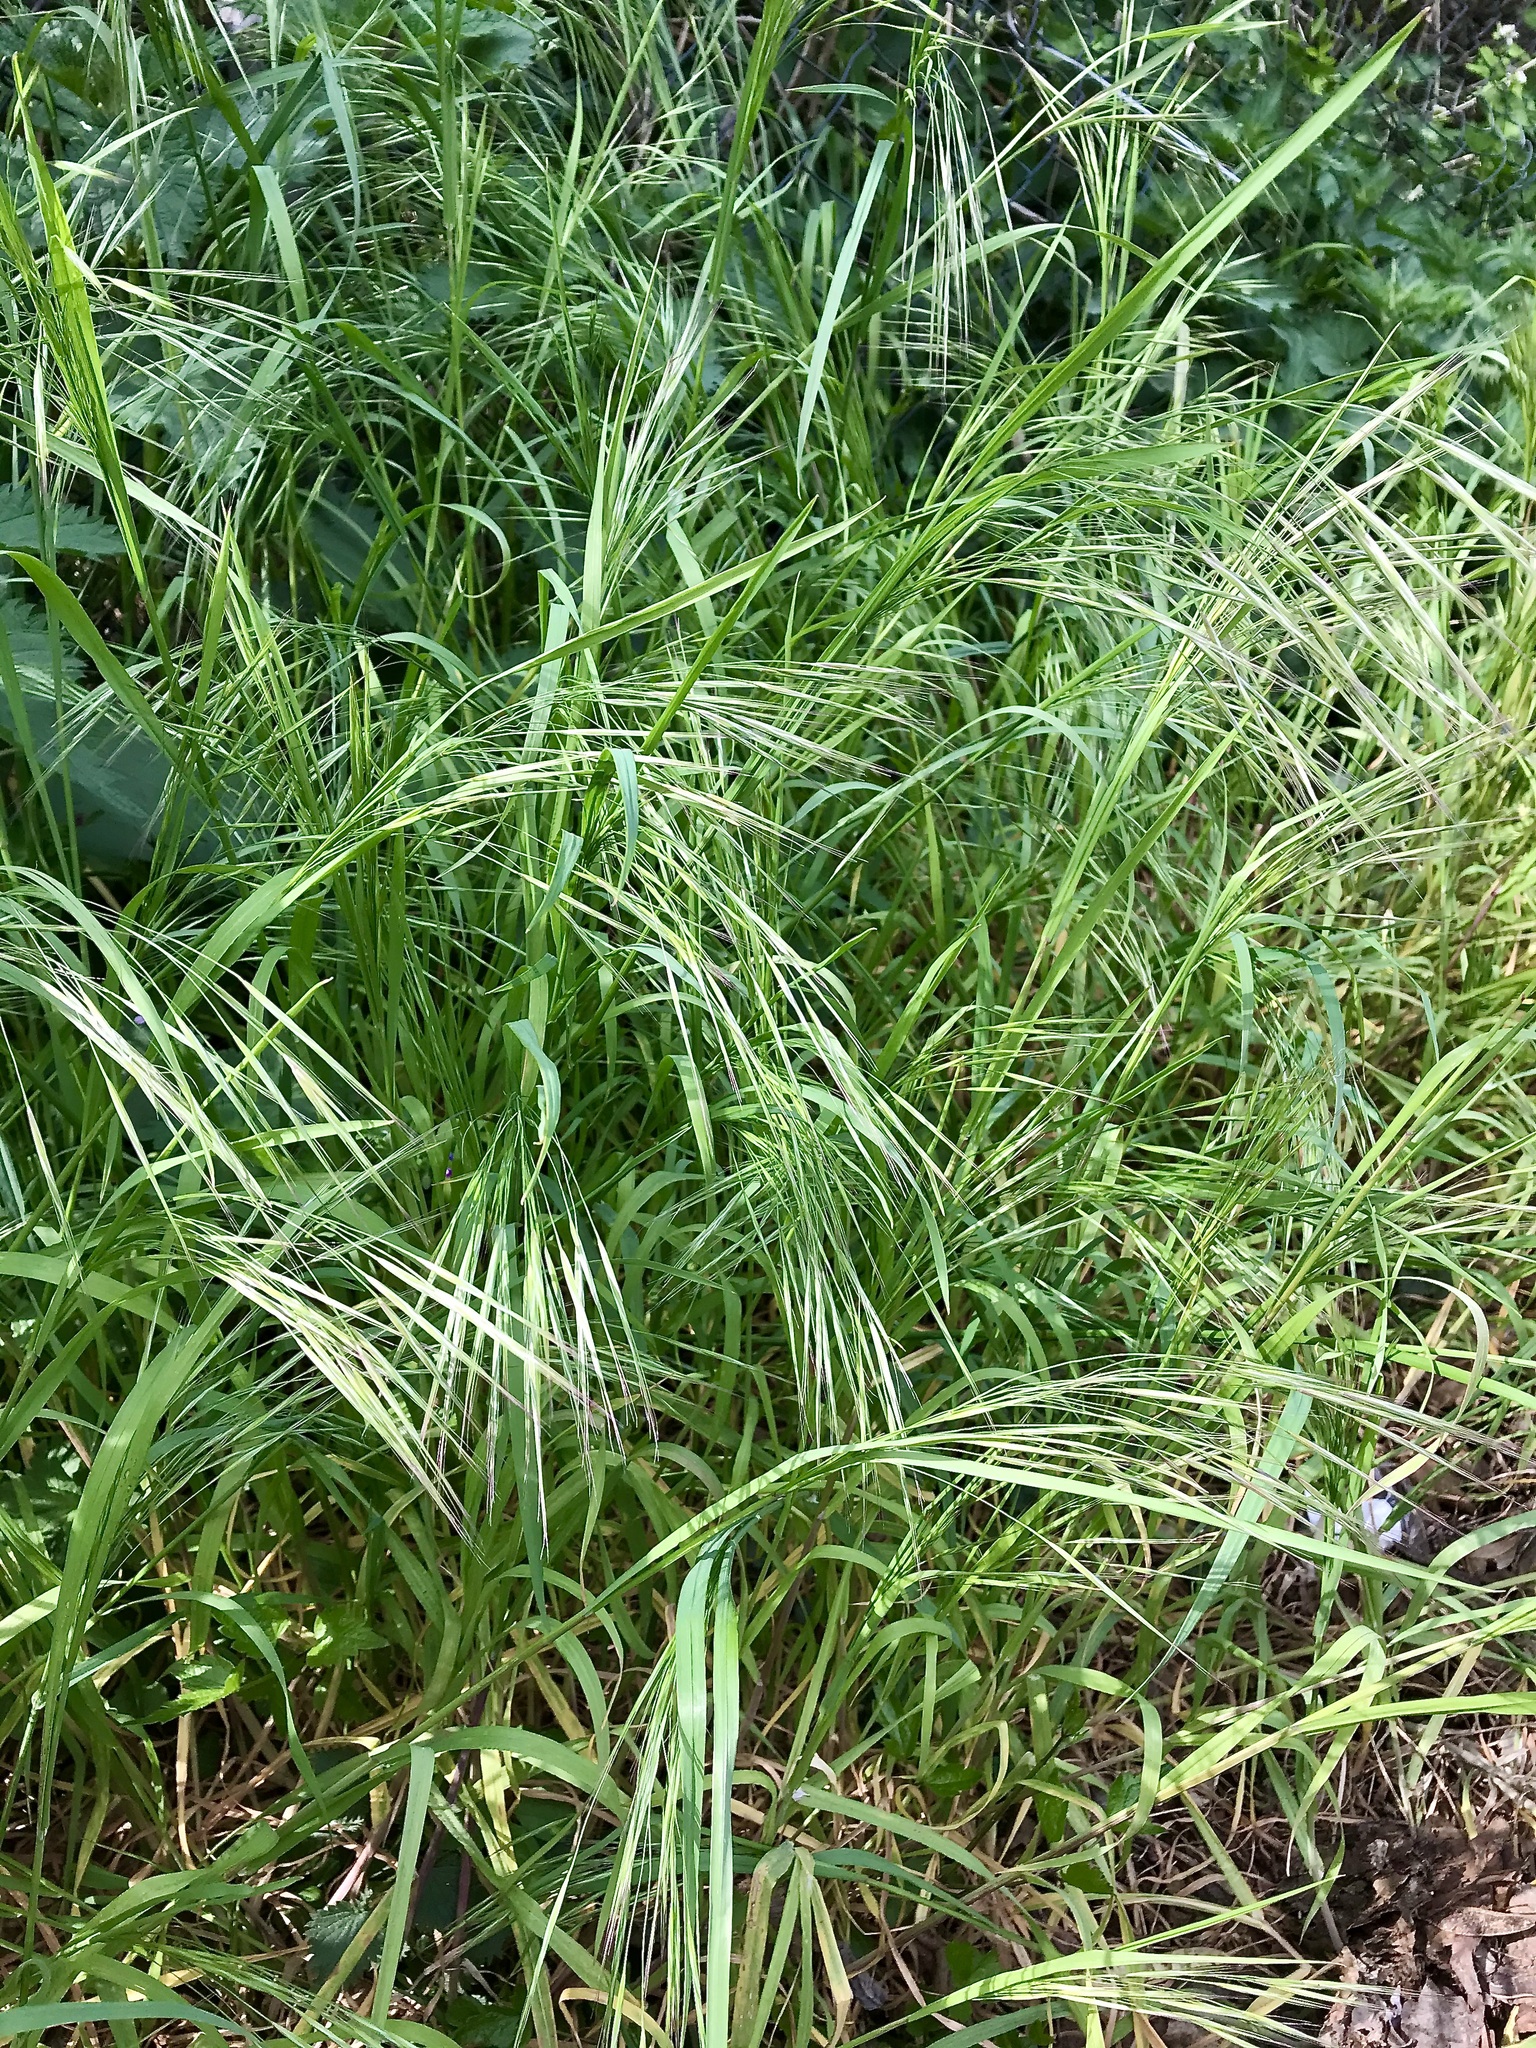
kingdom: Plantae
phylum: Tracheophyta
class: Liliopsida
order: Poales
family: Poaceae
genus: Bromus
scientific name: Bromus sterilis
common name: Poverty brome
